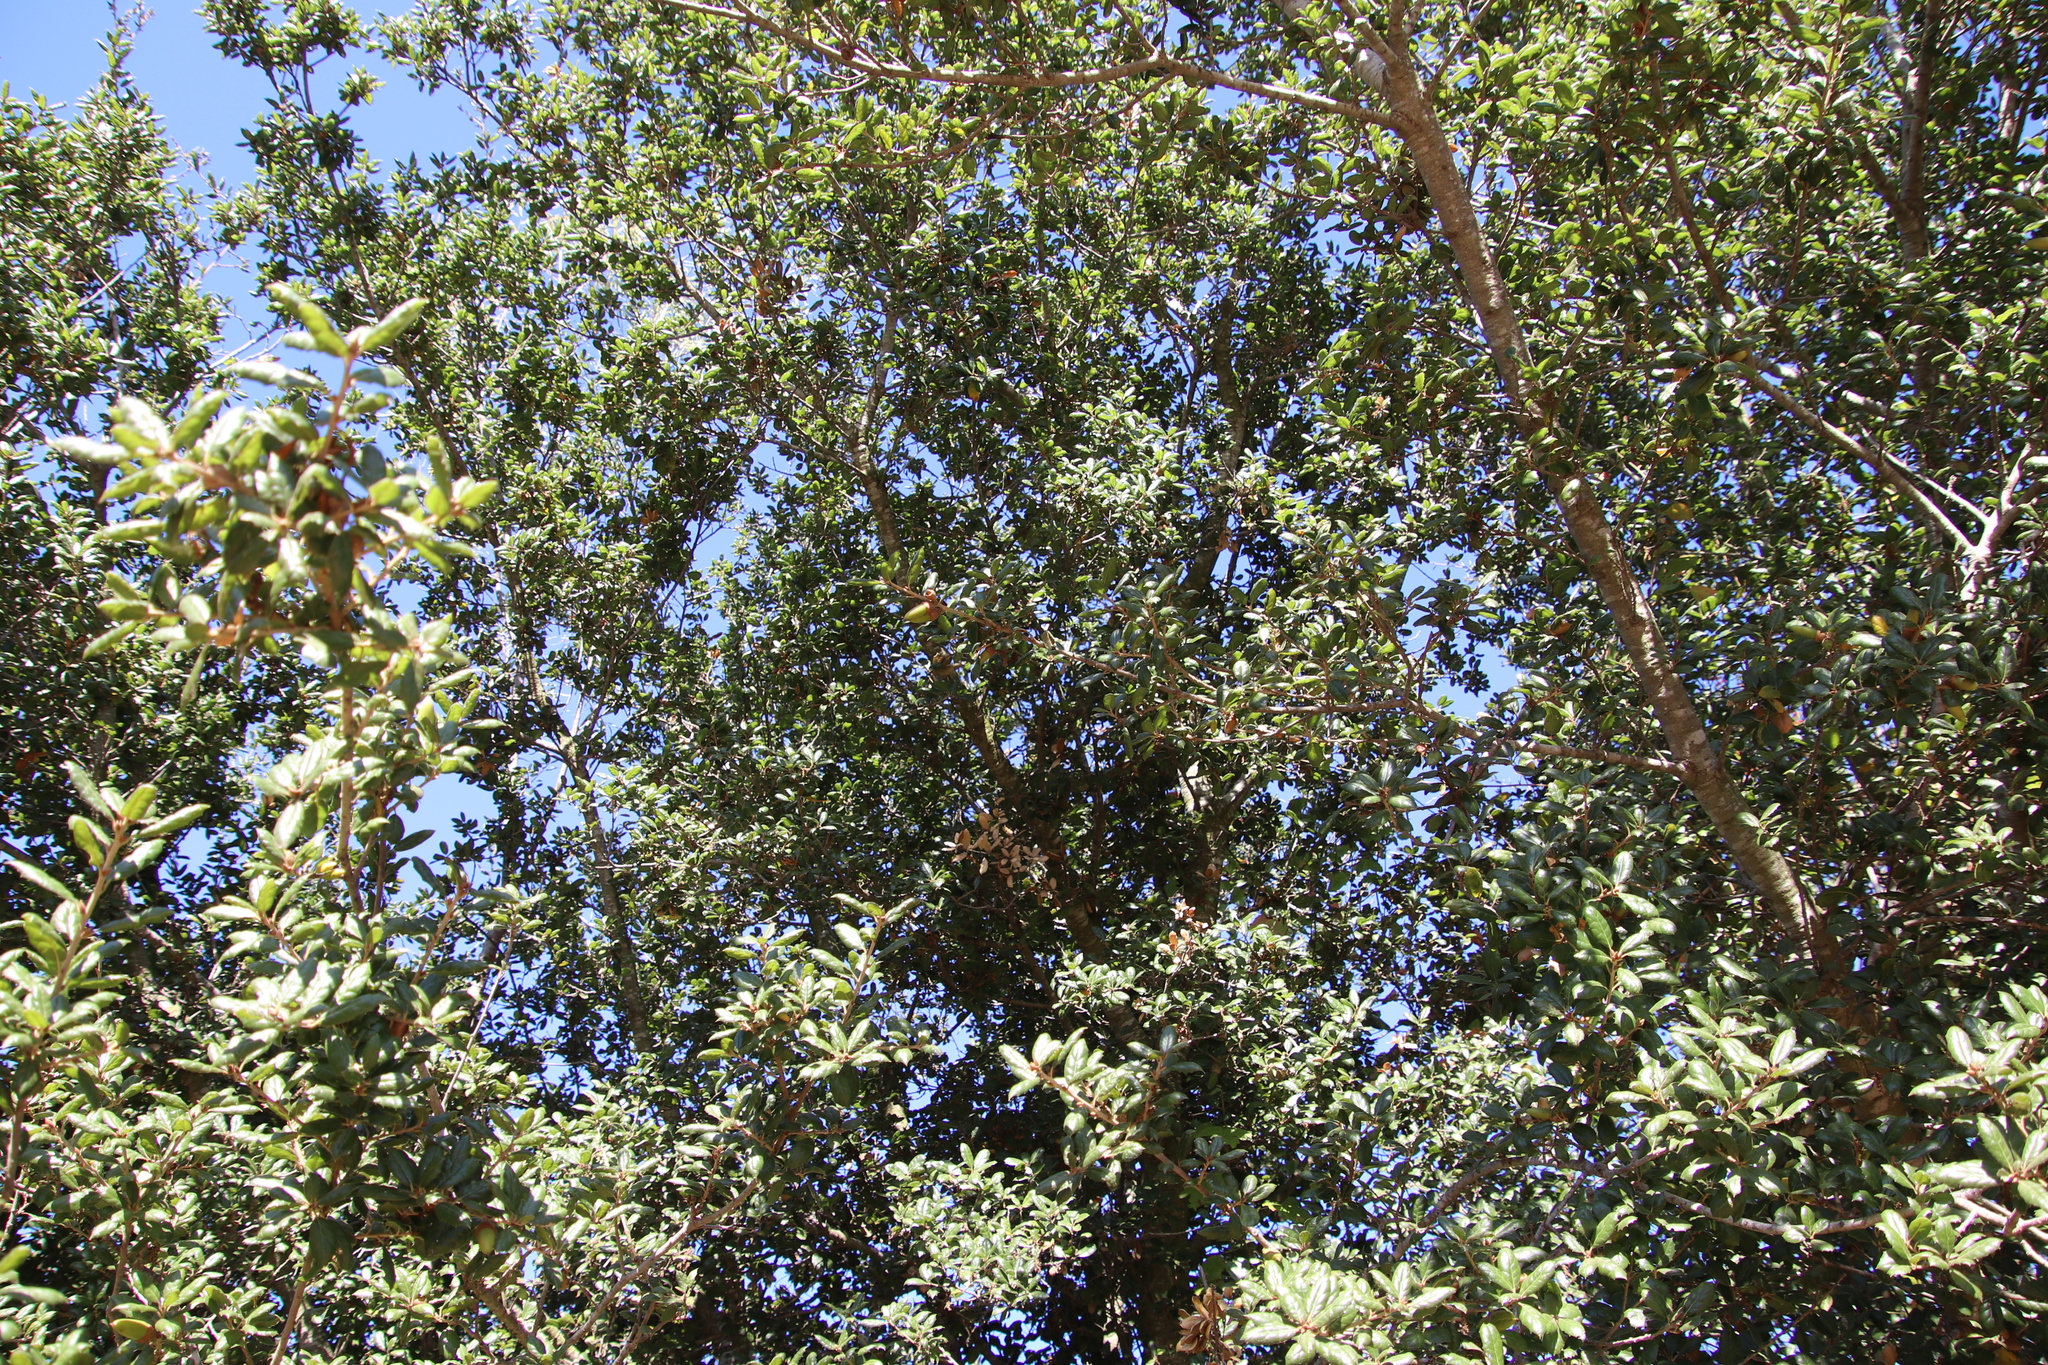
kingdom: Plantae
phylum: Tracheophyta
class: Magnoliopsida
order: Fagales
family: Fagaceae
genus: Quercus
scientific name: Quercus agrifolia
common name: California live oak
